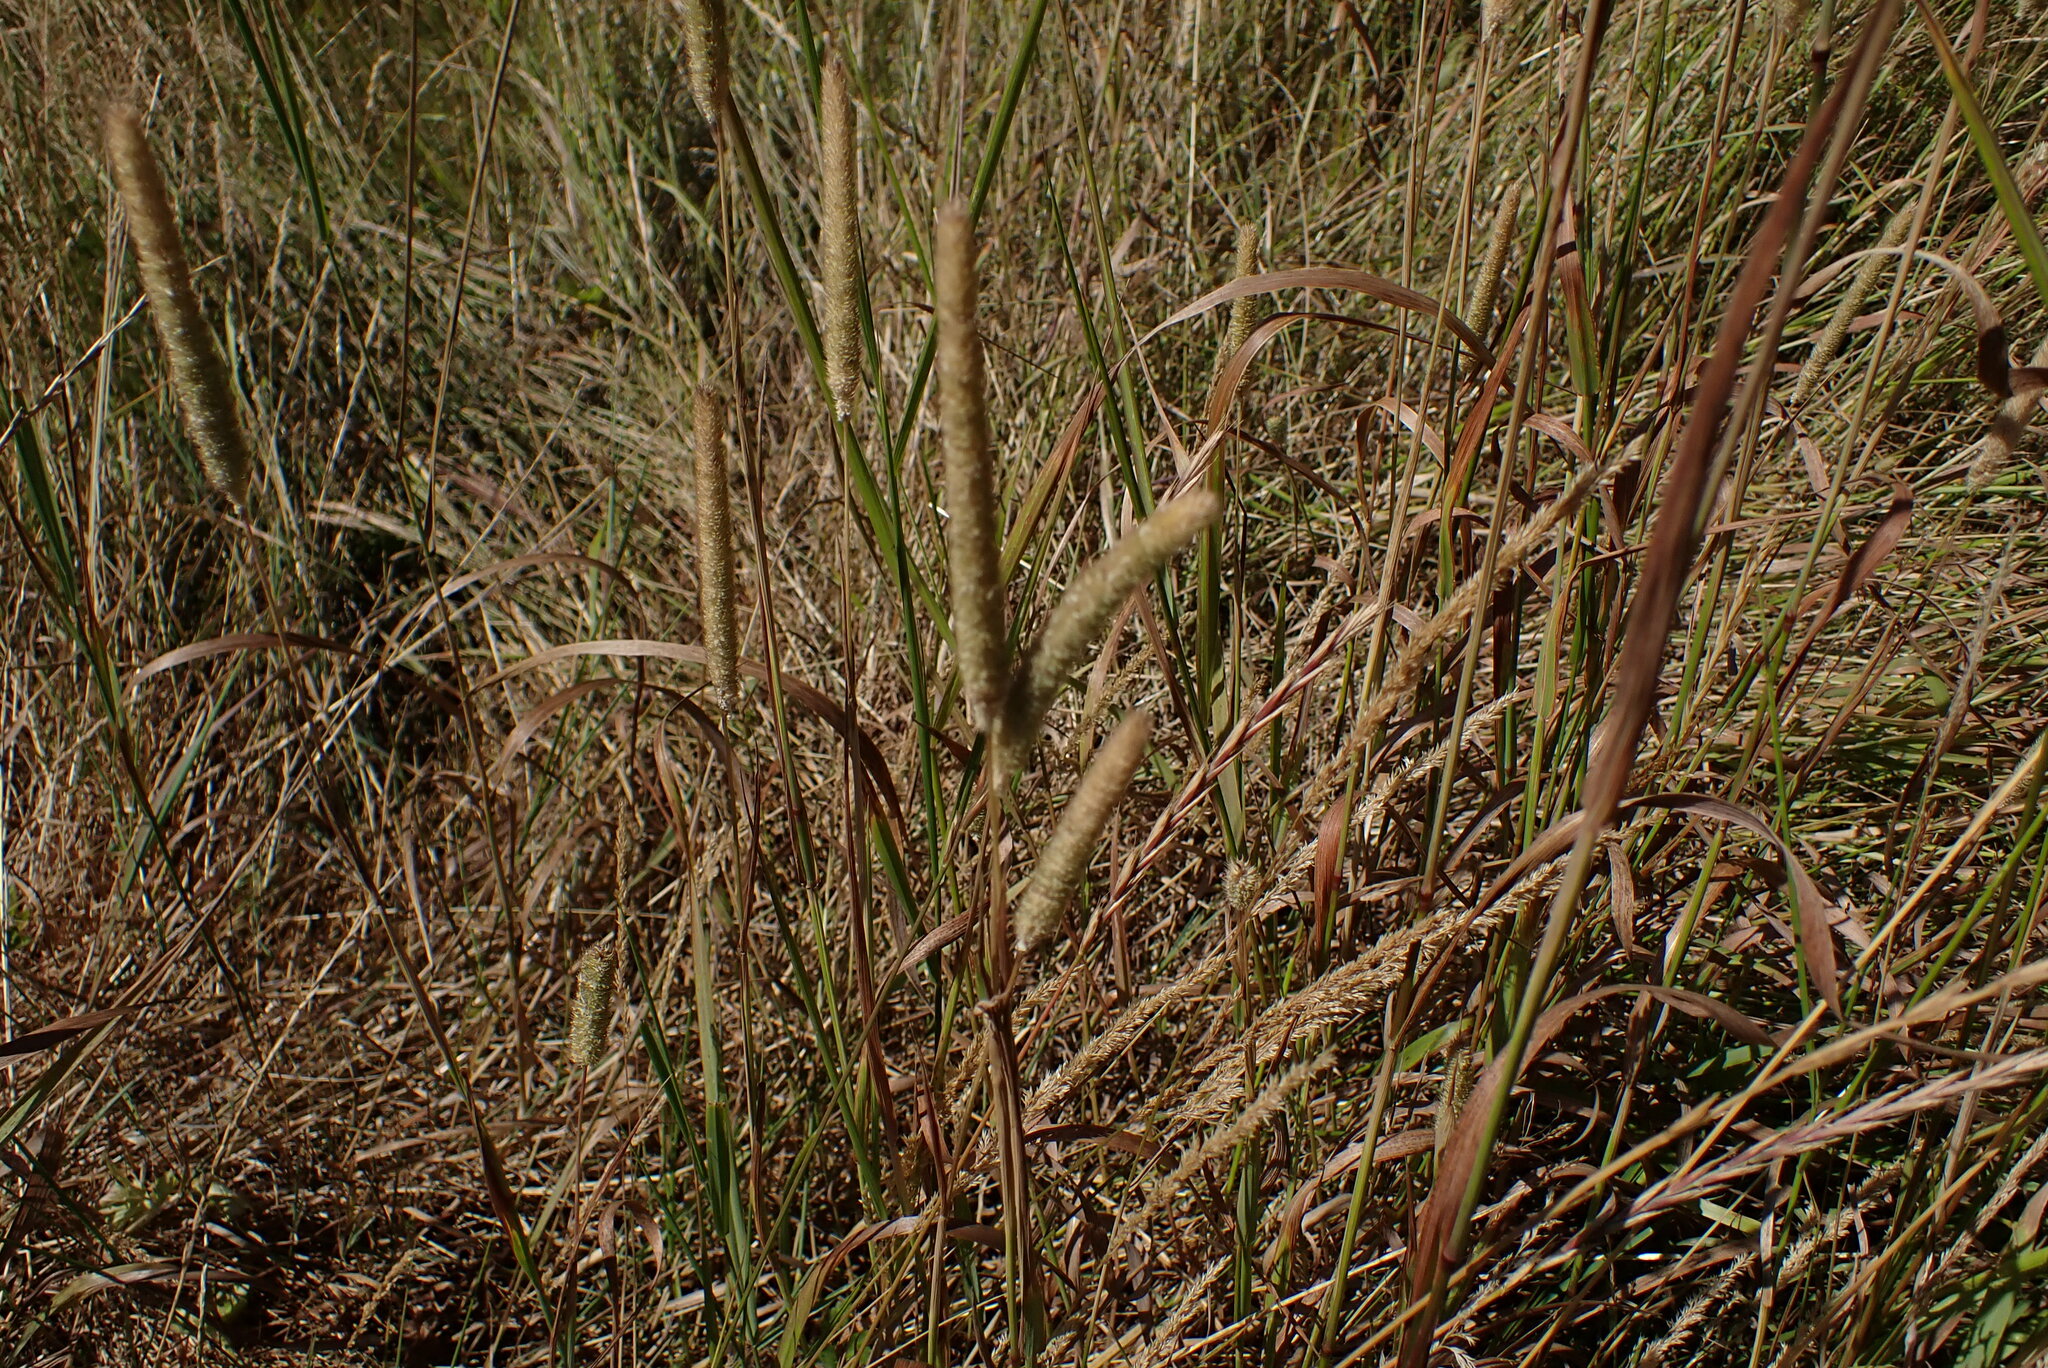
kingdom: Plantae
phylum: Tracheophyta
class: Liliopsida
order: Poales
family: Poaceae
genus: Phleum
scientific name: Phleum pratense
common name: Timothy grass
